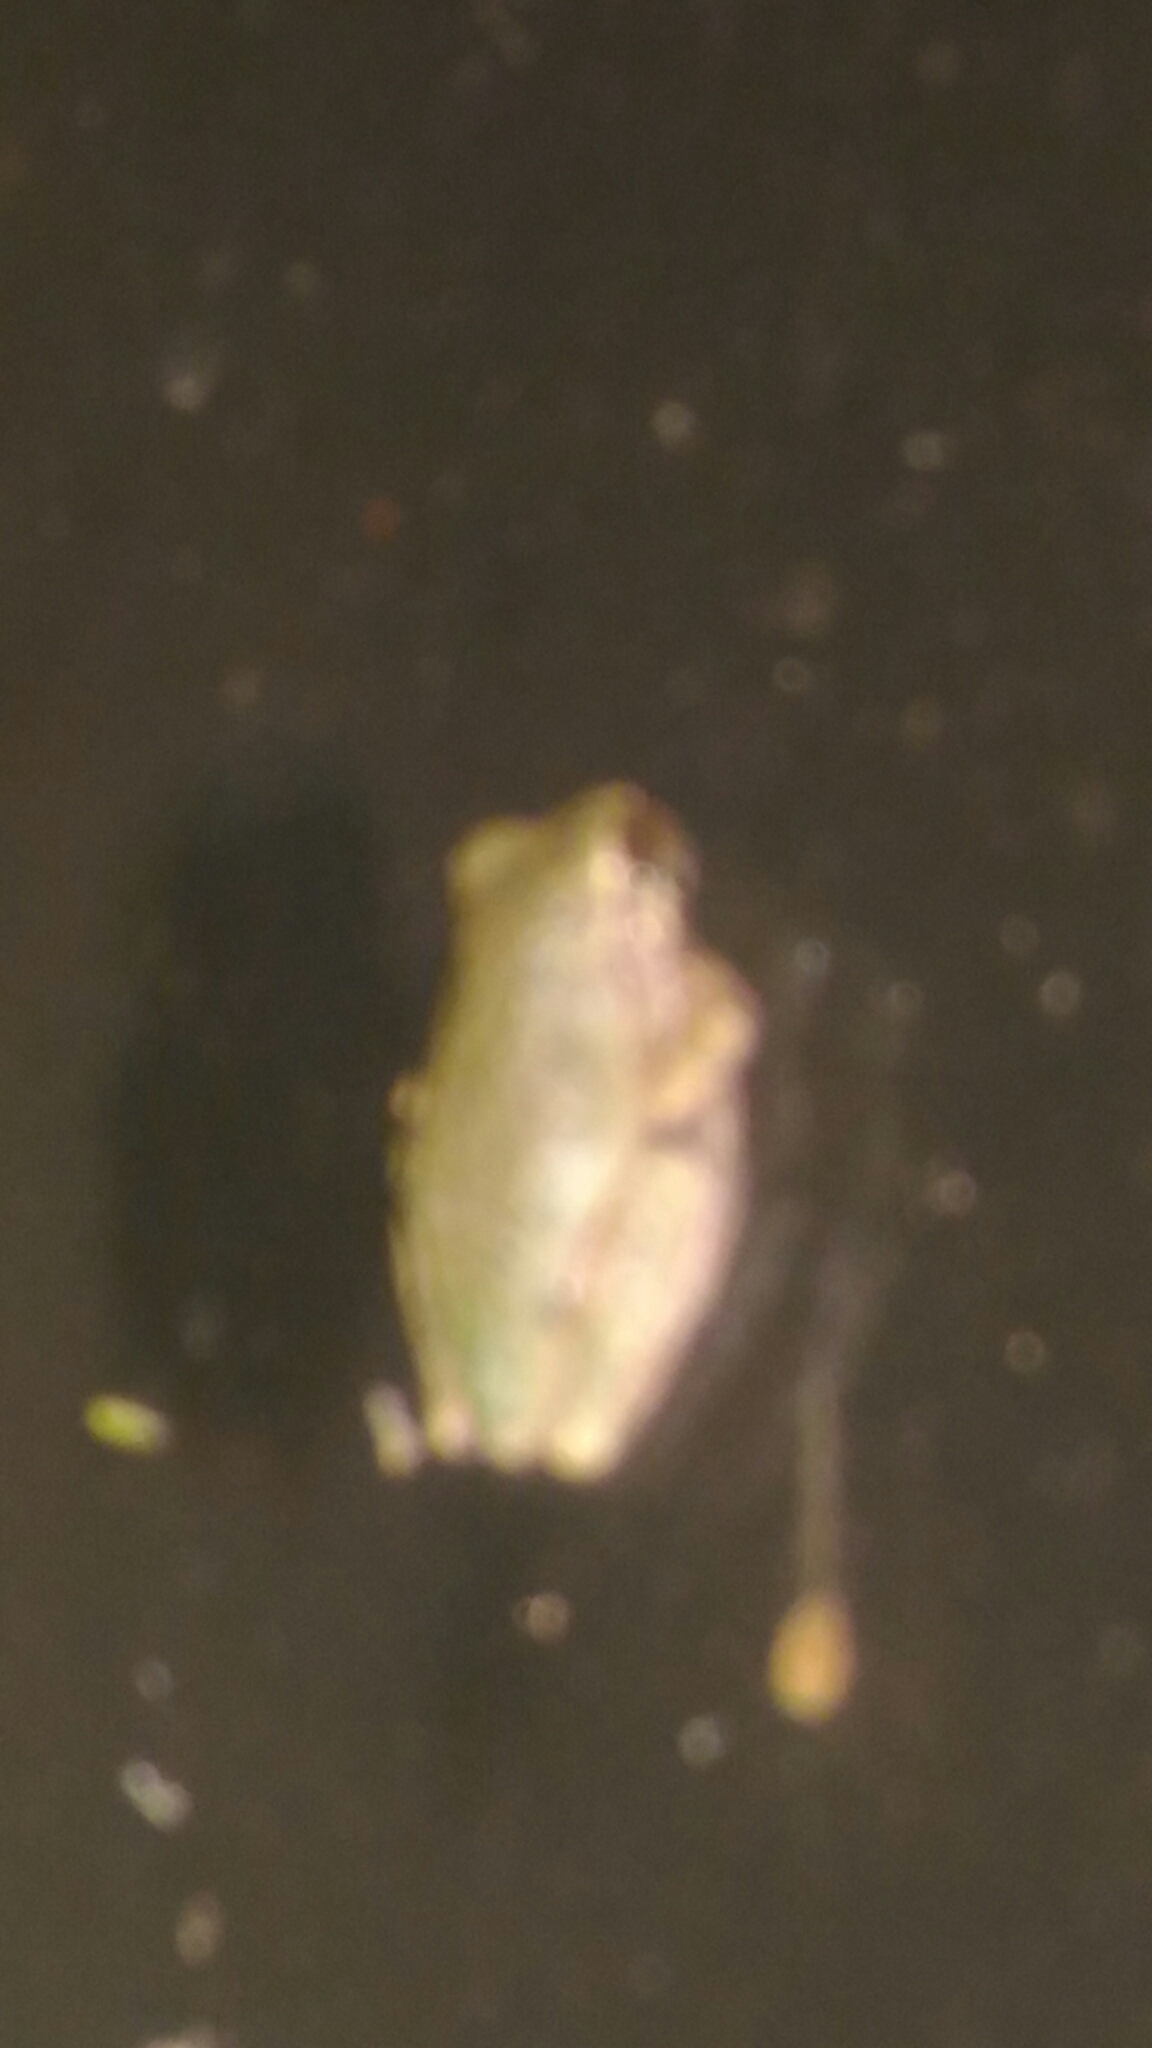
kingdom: Animalia
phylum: Chordata
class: Amphibia
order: Anura
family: Hylidae
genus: Hyla
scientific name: Hyla
